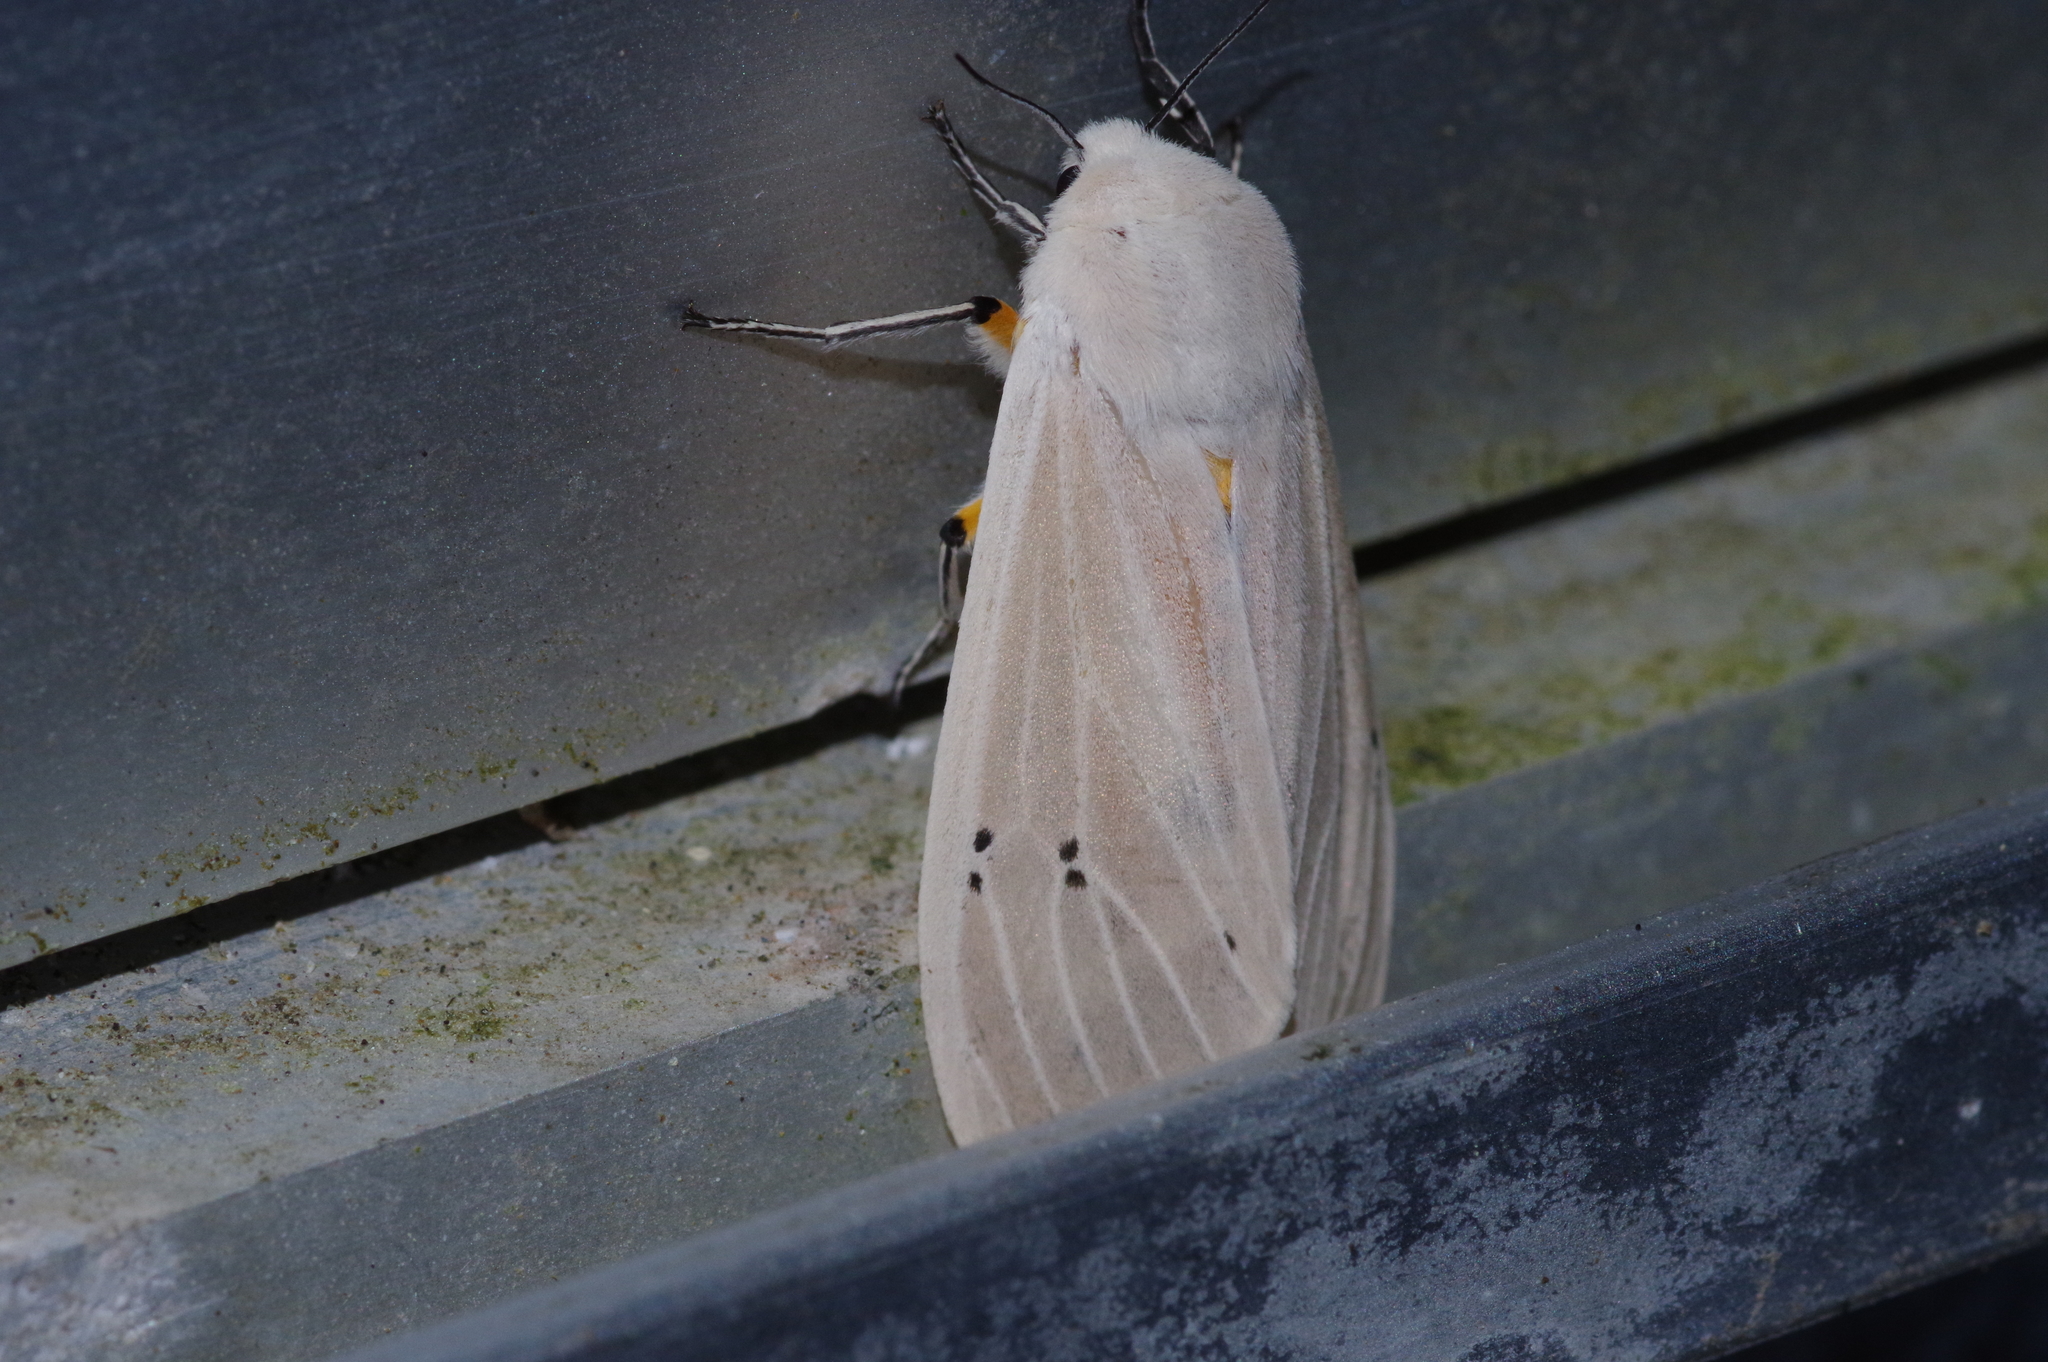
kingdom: Animalia
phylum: Arthropoda
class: Insecta
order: Lepidoptera
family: Erebidae
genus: Creatonotos
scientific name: Creatonotos transiens
